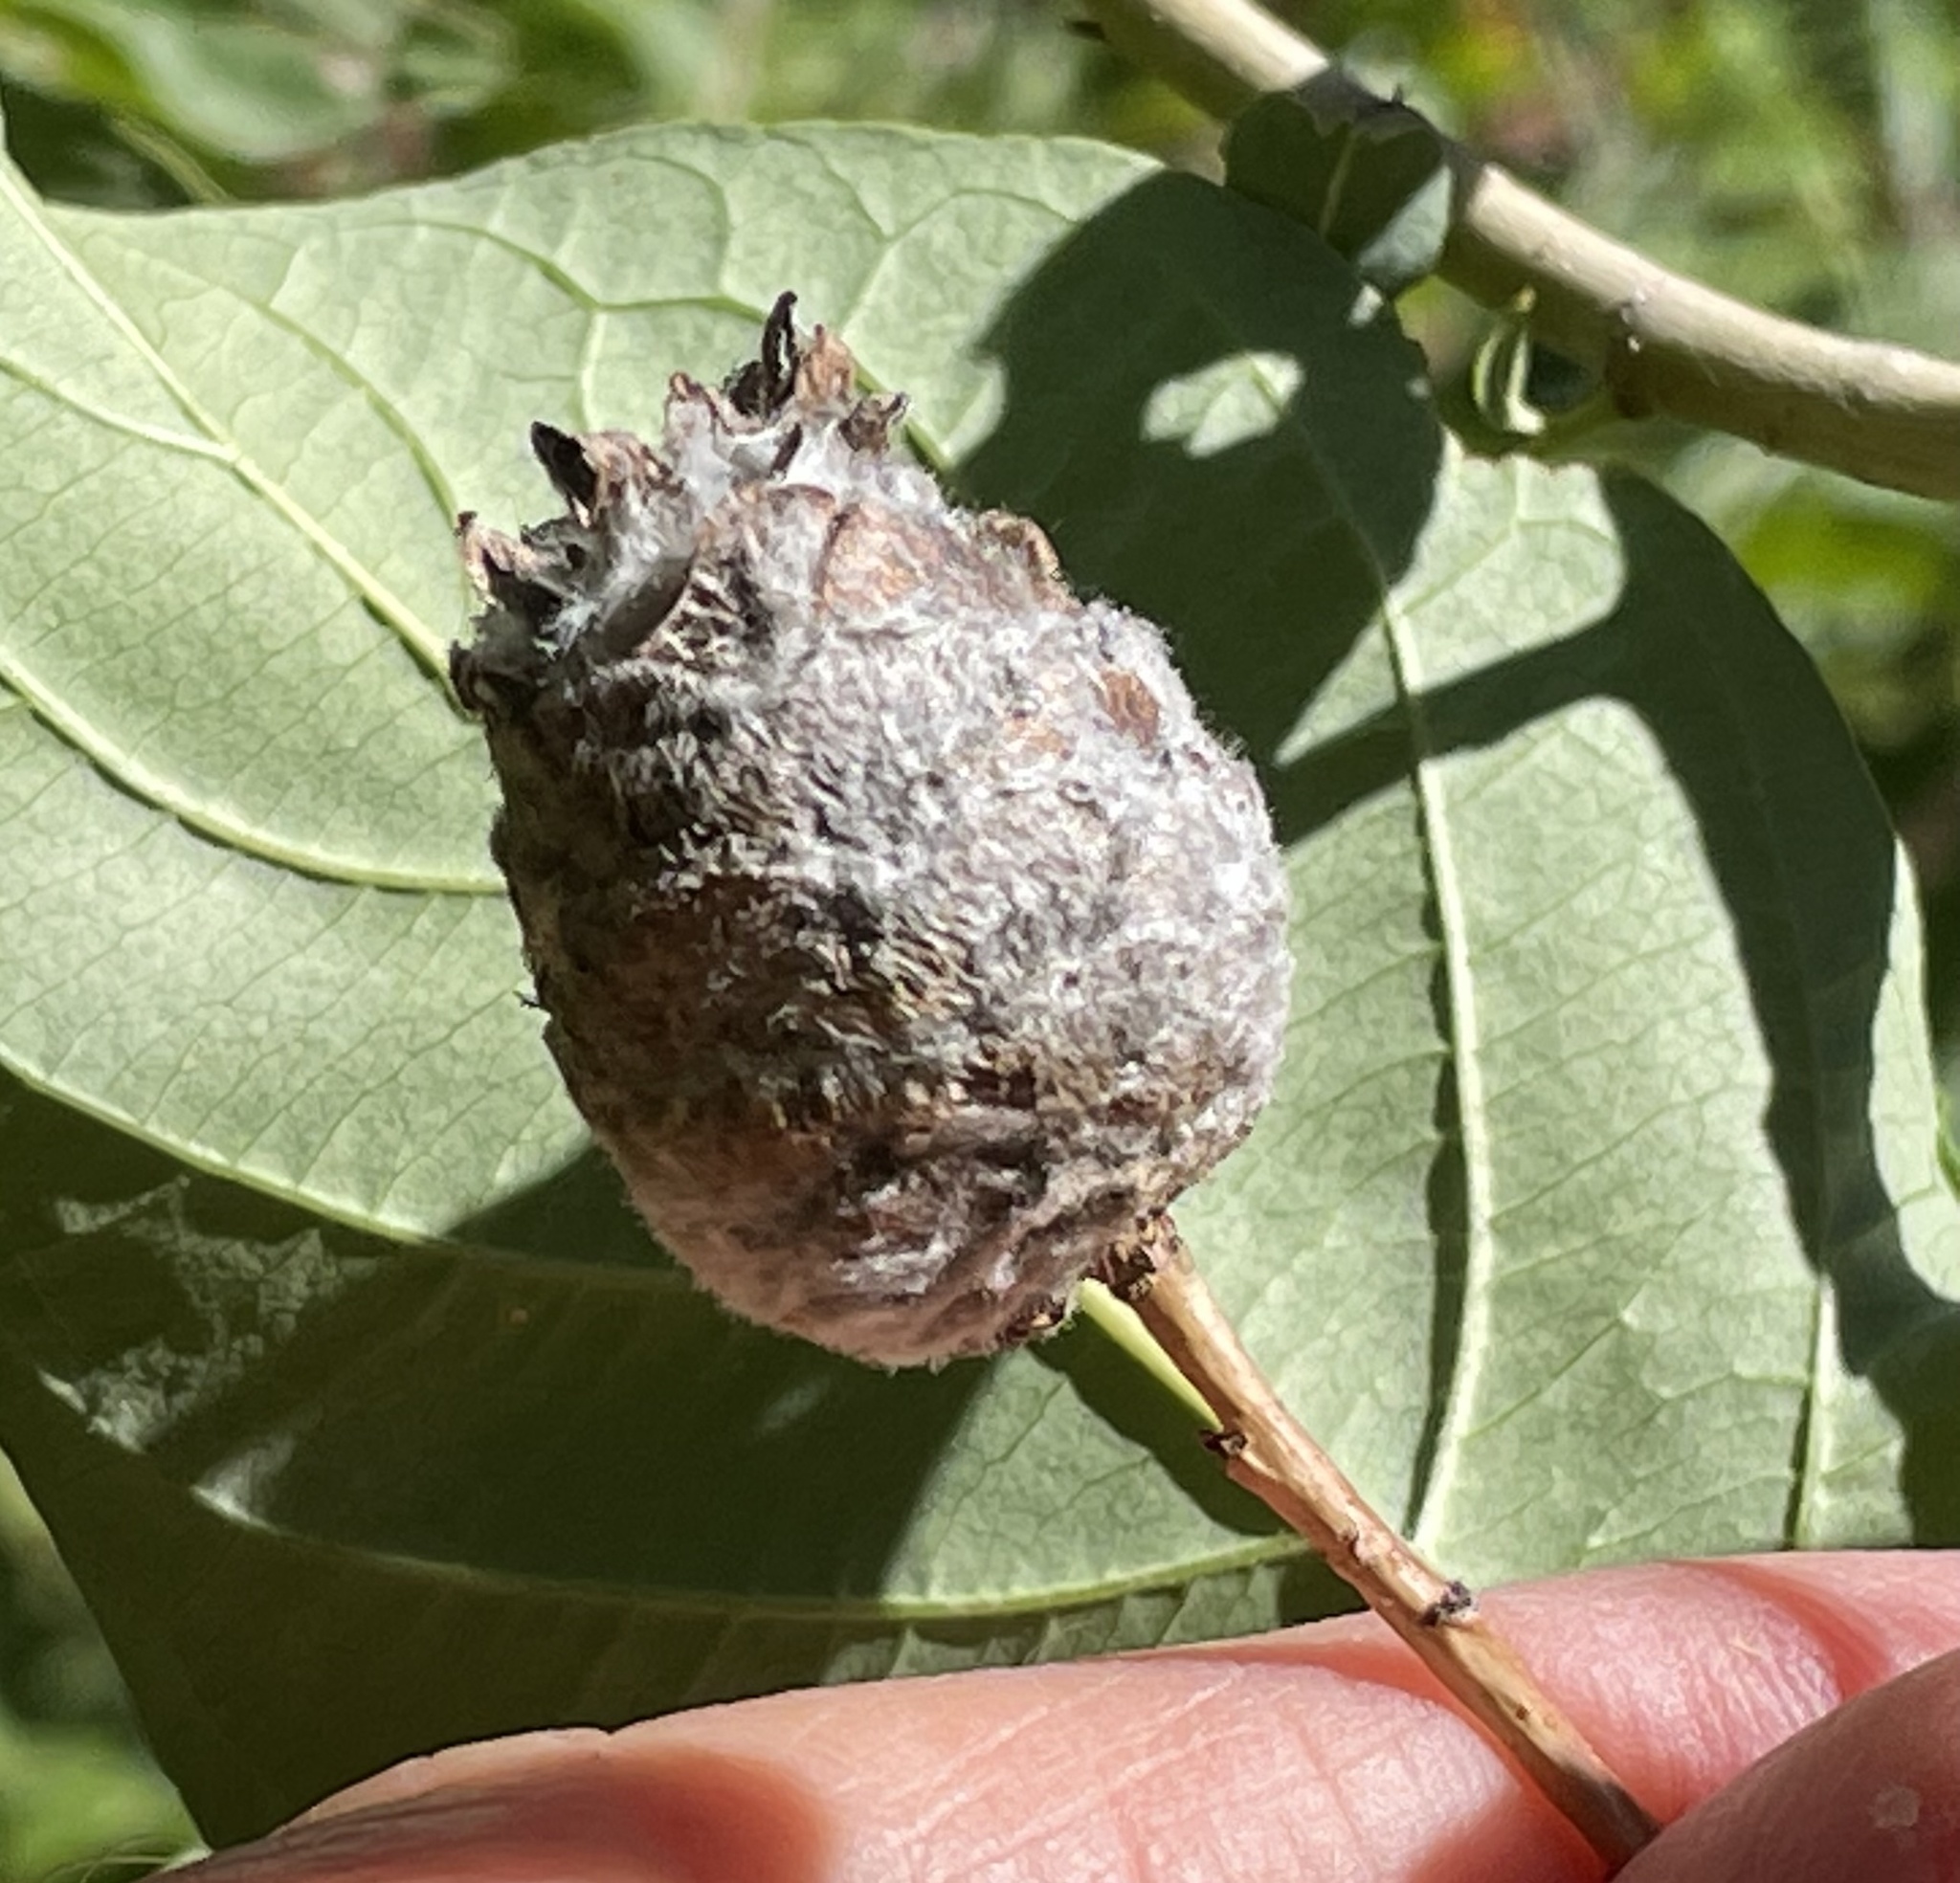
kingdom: Animalia
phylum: Arthropoda
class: Insecta
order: Diptera
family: Cecidomyiidae
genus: Rabdophaga
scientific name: Rabdophaga strobiloides
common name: Willow pinecone gall midge
